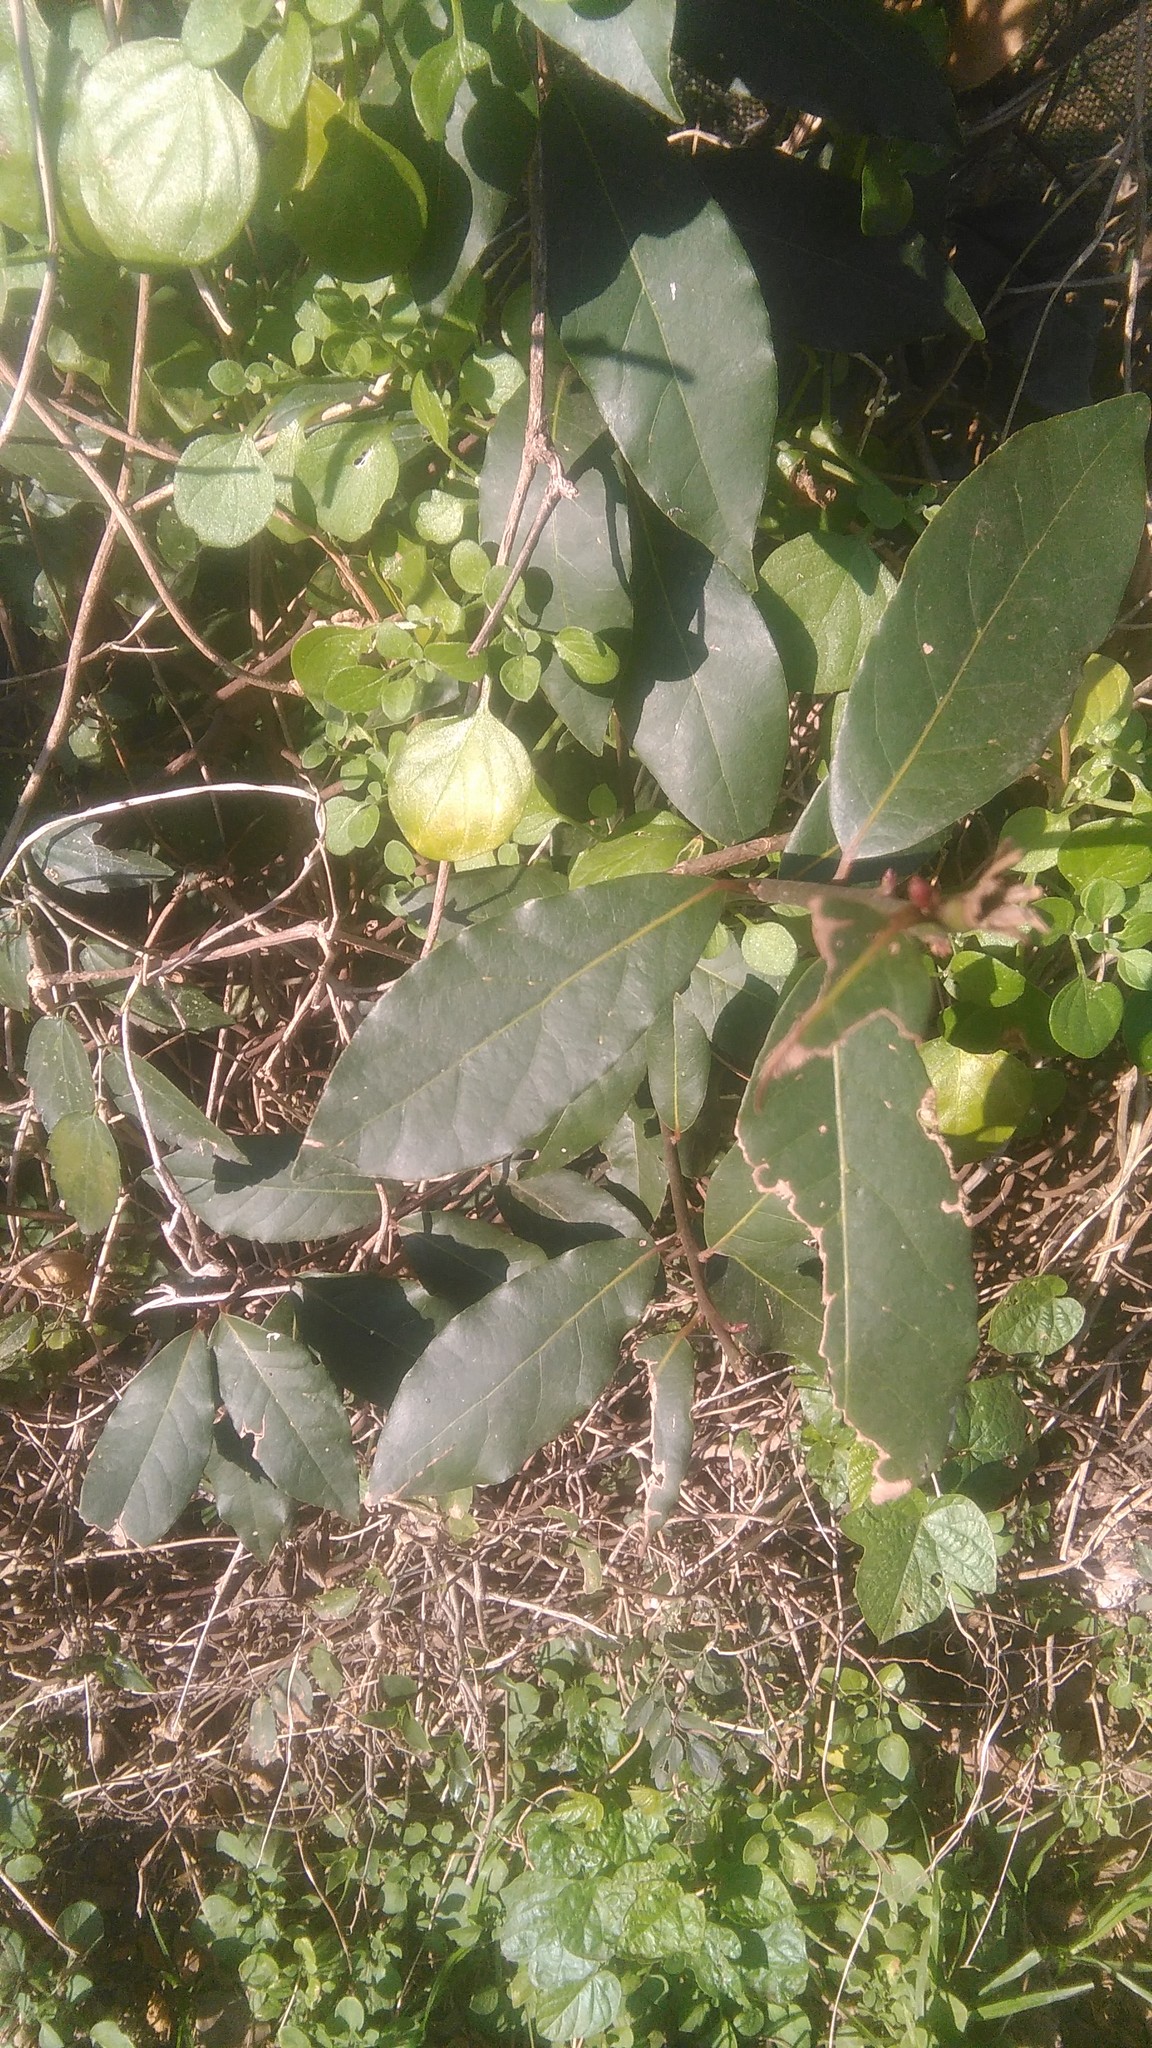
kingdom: Plantae
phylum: Tracheophyta
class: Magnoliopsida
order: Laurales
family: Lauraceae
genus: Laurus
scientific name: Laurus nobilis
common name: Bay
